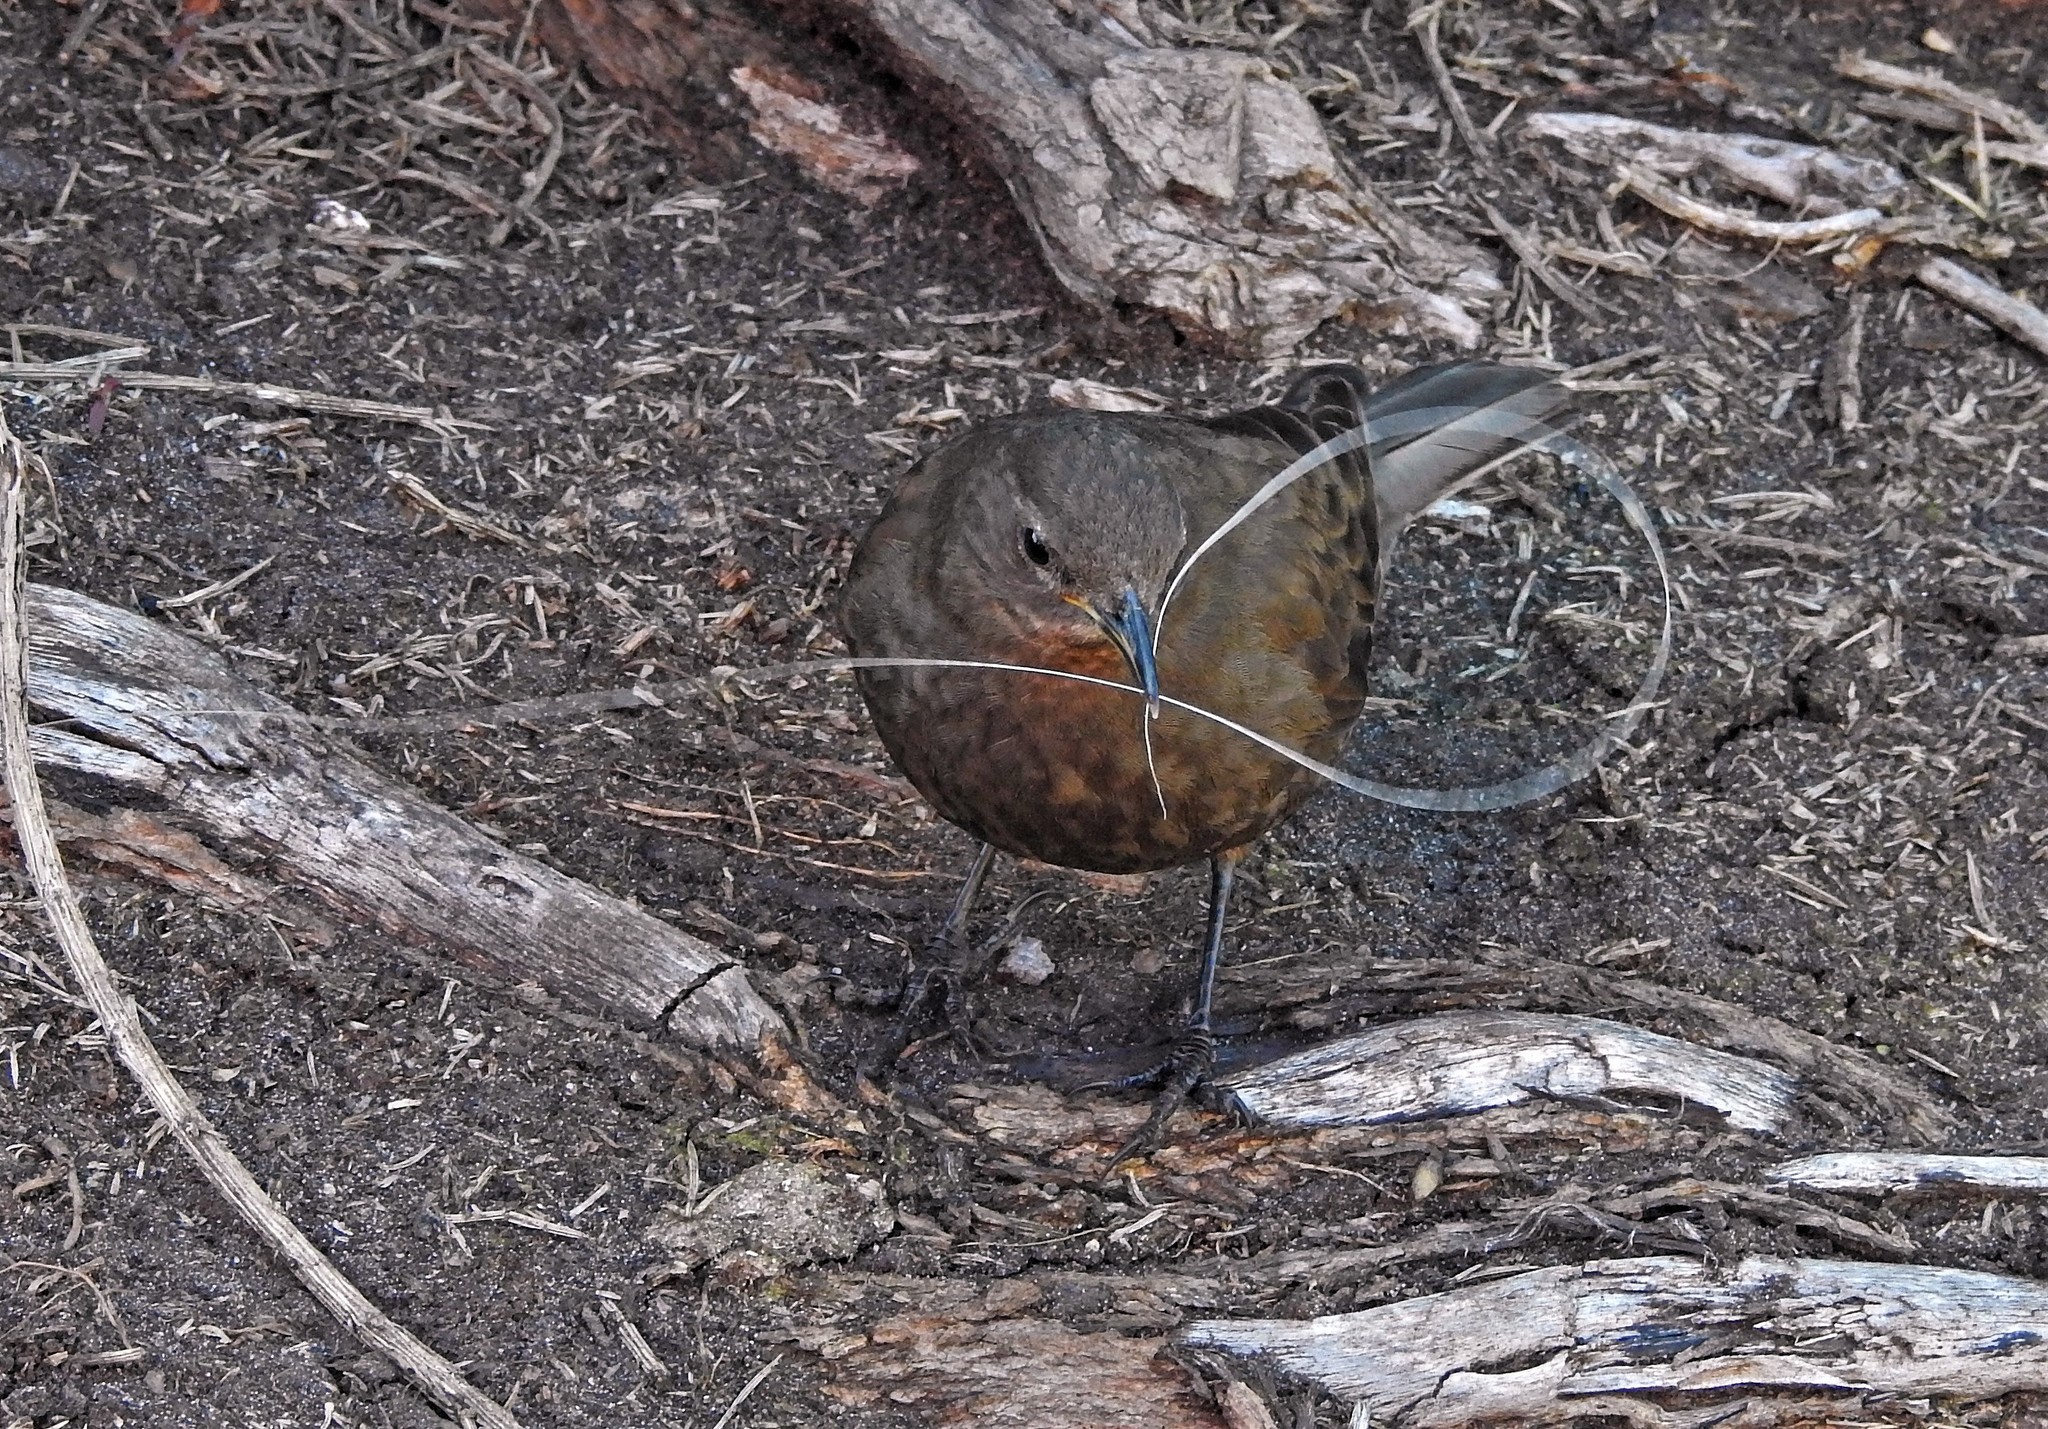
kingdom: Animalia
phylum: Chordata
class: Aves
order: Passeriformes
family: Furnariidae
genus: Cinclodes
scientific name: Cinclodes antarcticus
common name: Blackish cinclodes
